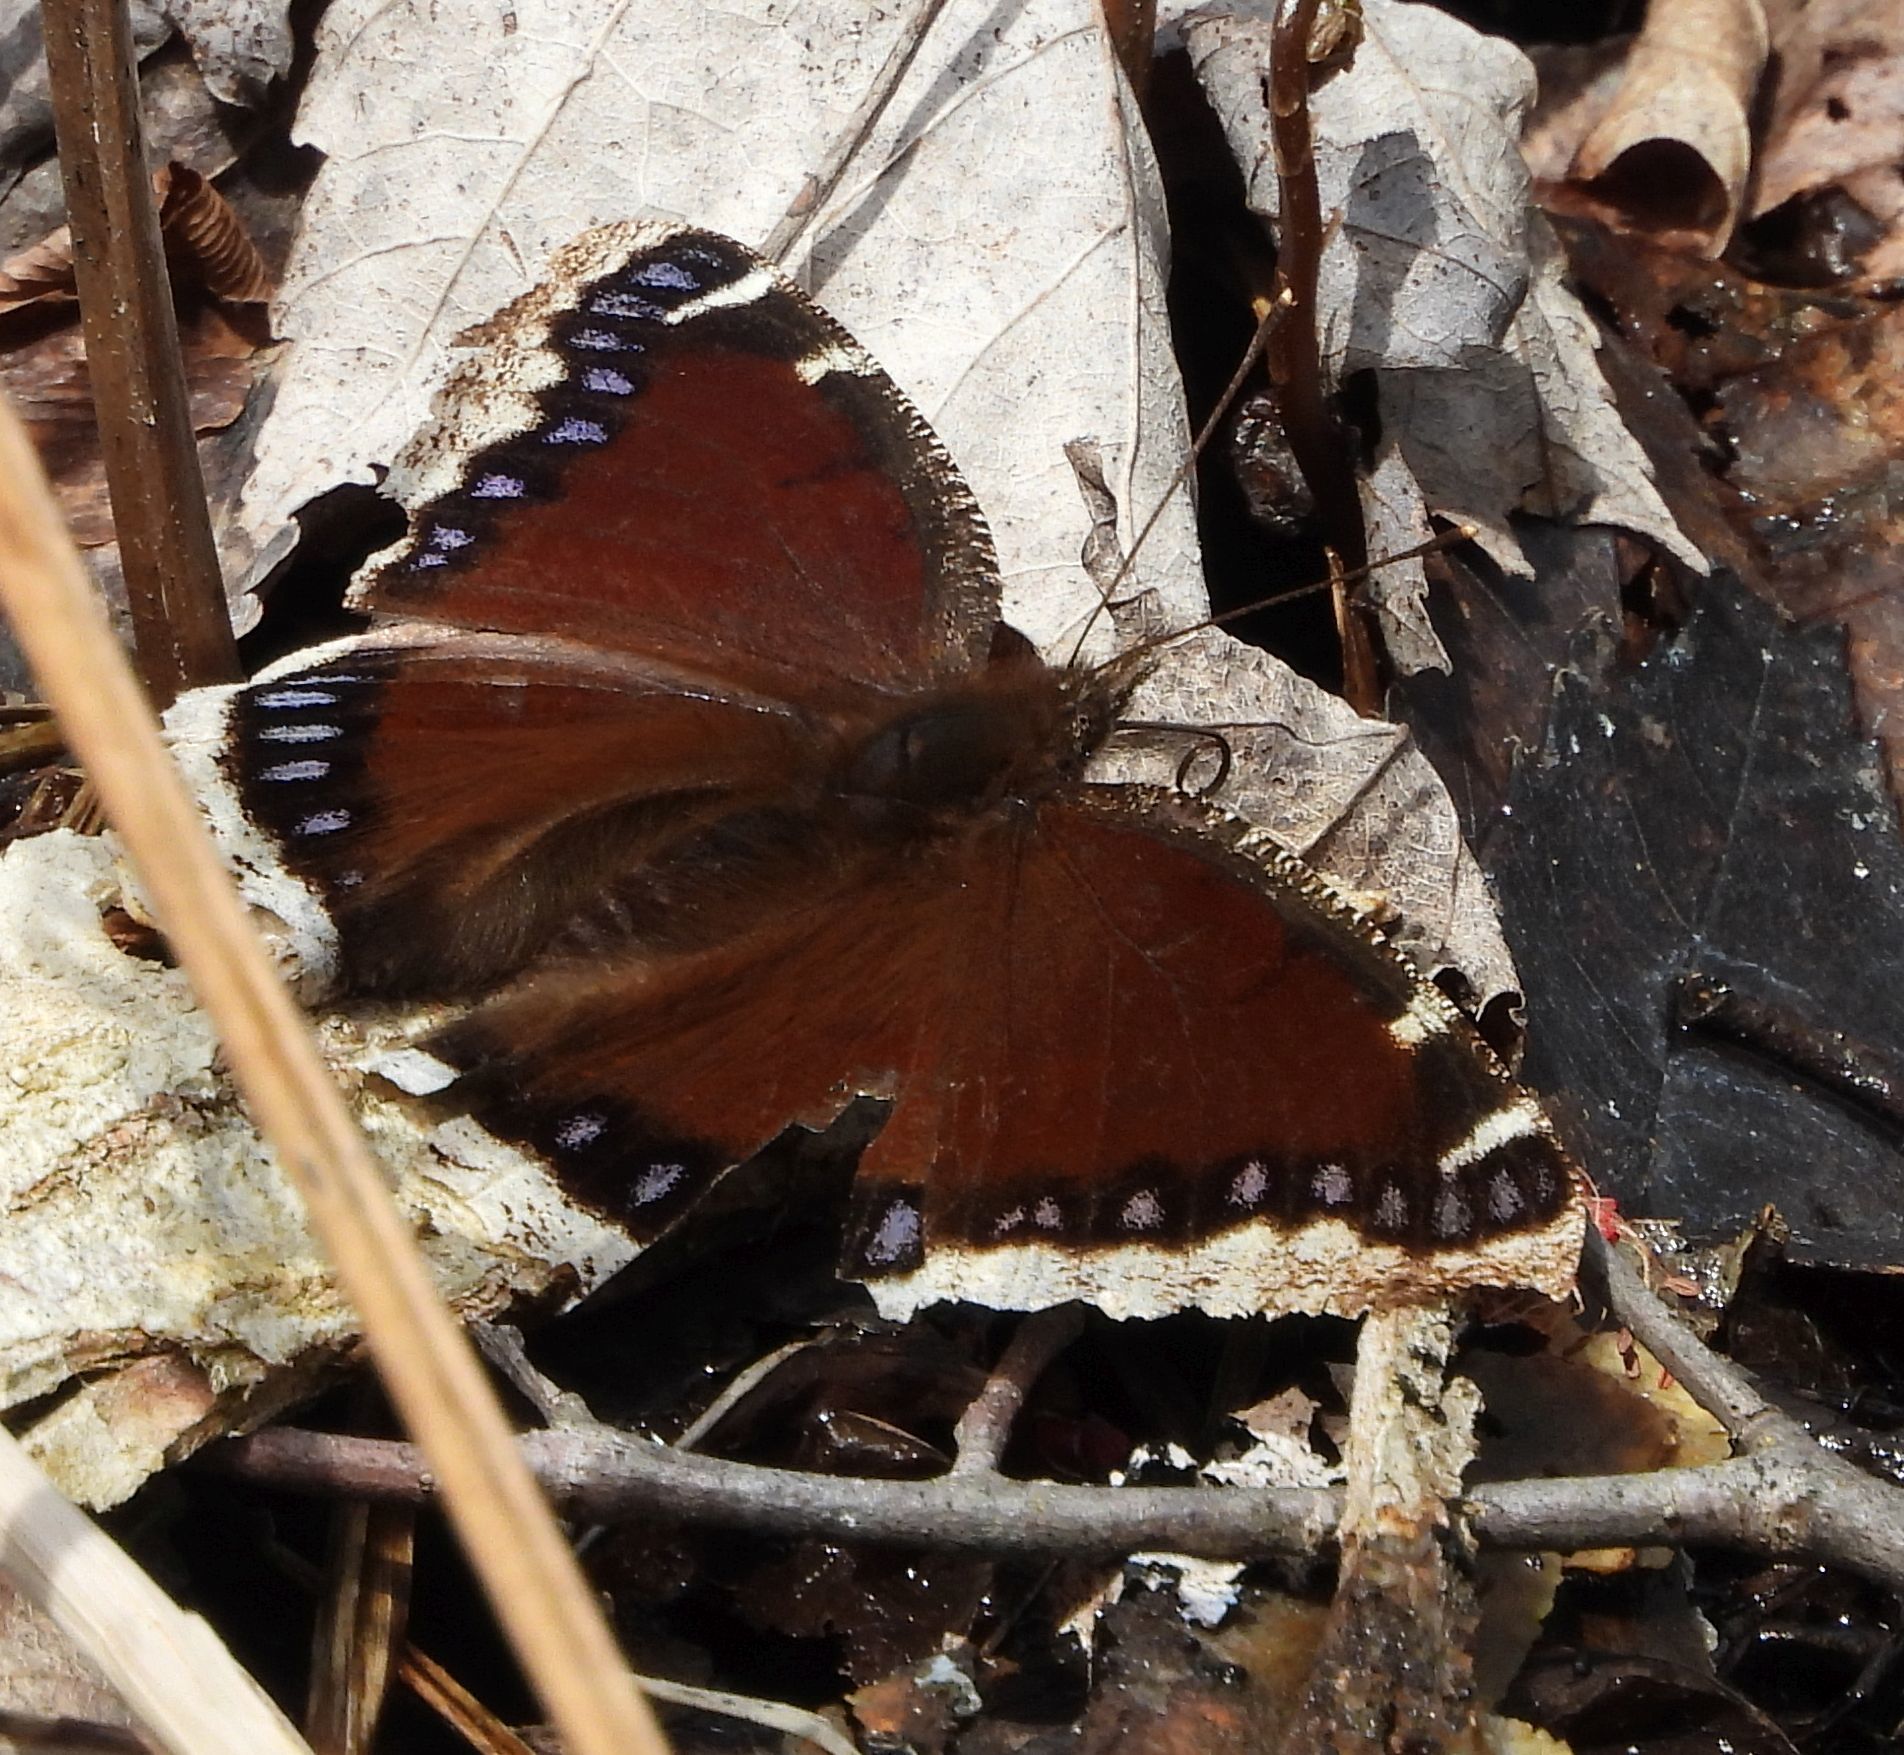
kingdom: Animalia
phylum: Arthropoda
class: Insecta
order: Lepidoptera
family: Nymphalidae
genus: Nymphalis
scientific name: Nymphalis antiopa
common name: Camberwell beauty
